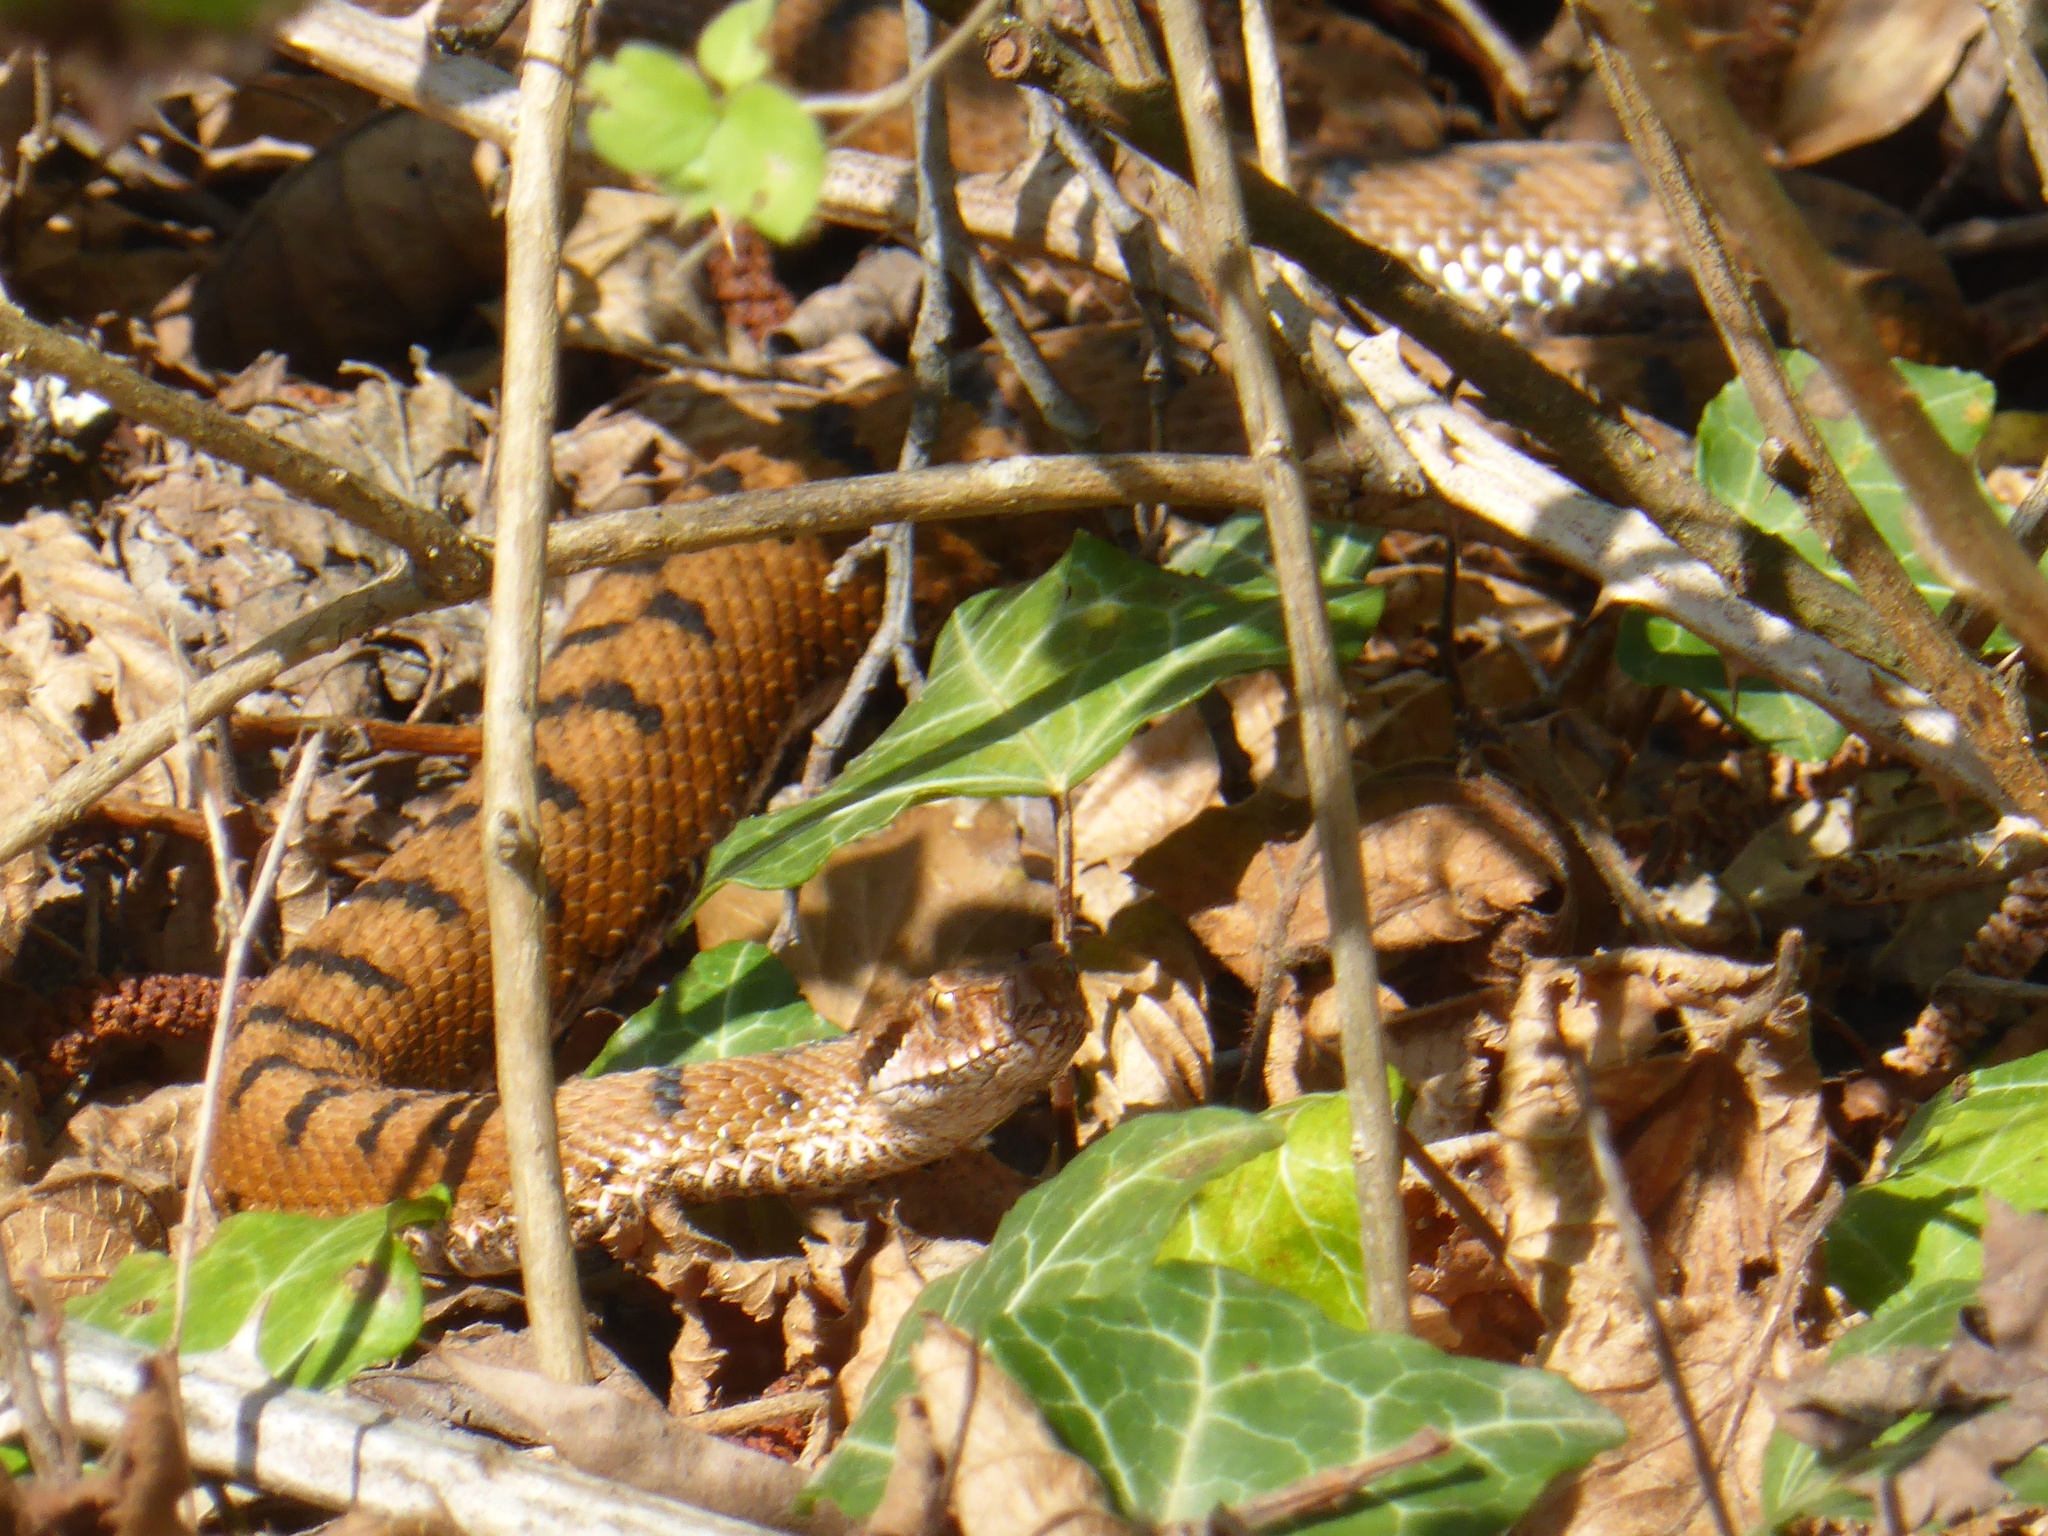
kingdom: Animalia
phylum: Chordata
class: Squamata
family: Viperidae
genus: Vipera
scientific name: Vipera aspis
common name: Asp viper
